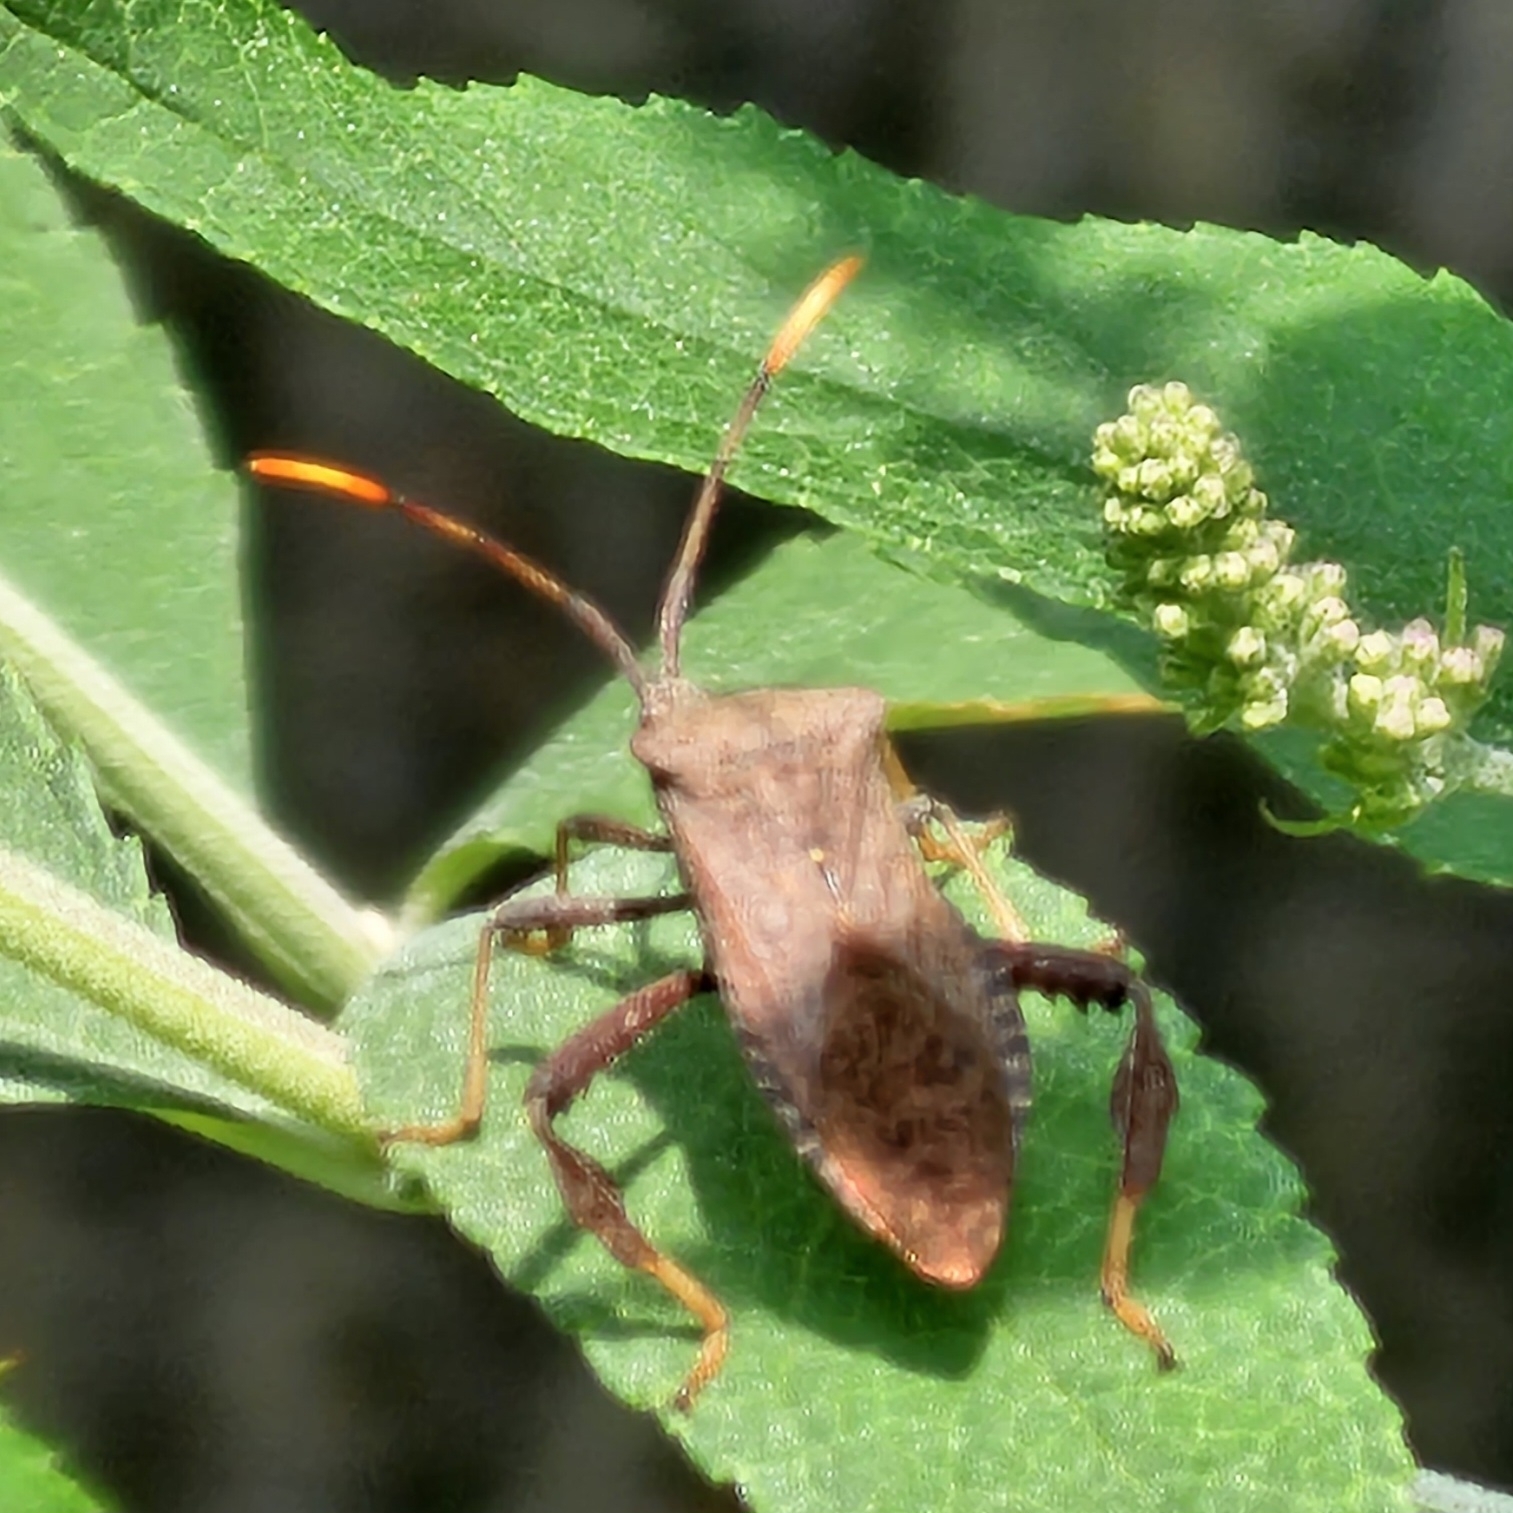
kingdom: Animalia
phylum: Arthropoda
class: Insecta
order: Hemiptera
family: Coreidae
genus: Acanthocephala
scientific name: Acanthocephala terminalis
